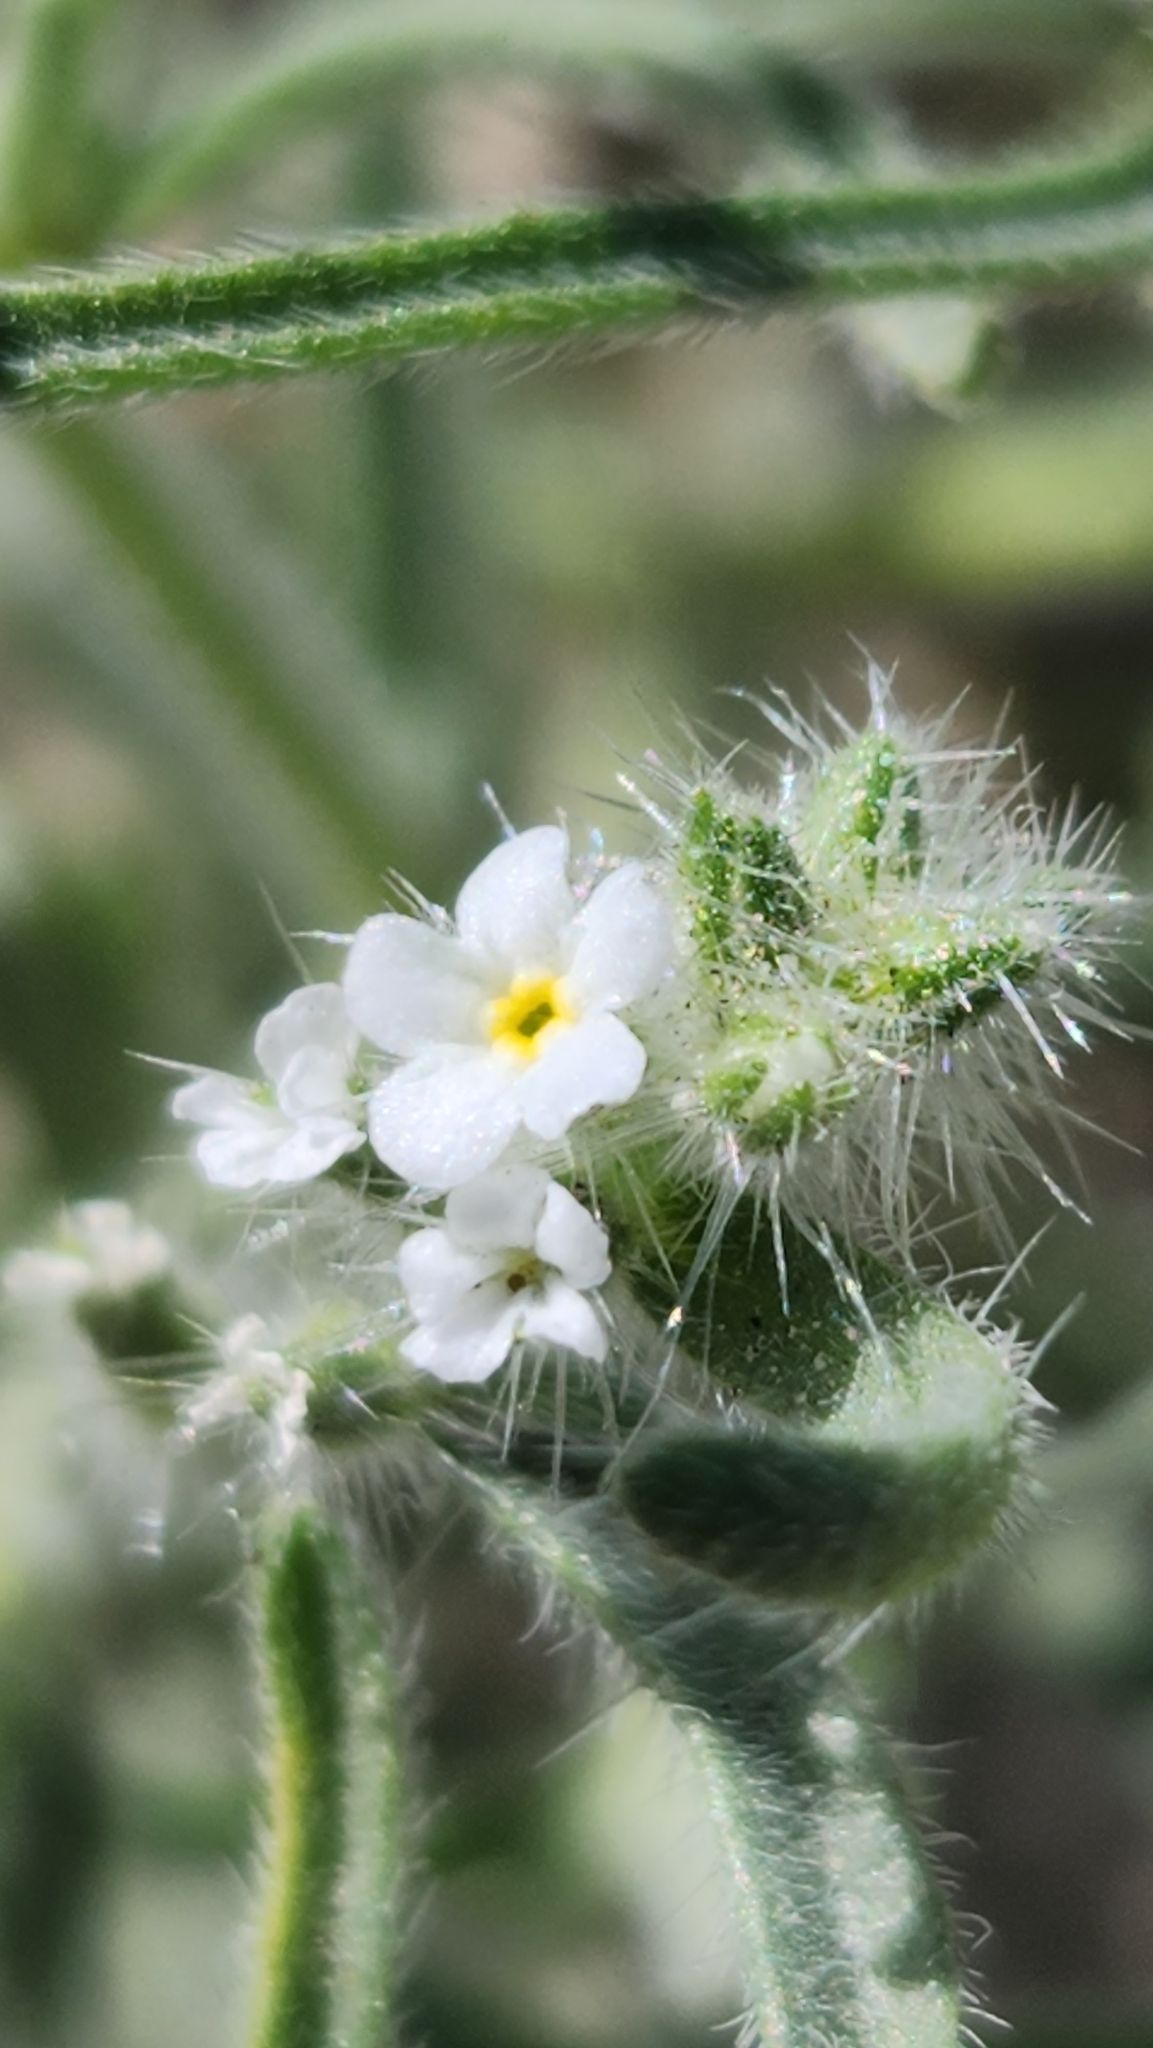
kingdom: Plantae
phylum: Tracheophyta
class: Magnoliopsida
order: Boraginales
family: Boraginaceae
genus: Johnstonella
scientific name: Johnstonella angustifolia
